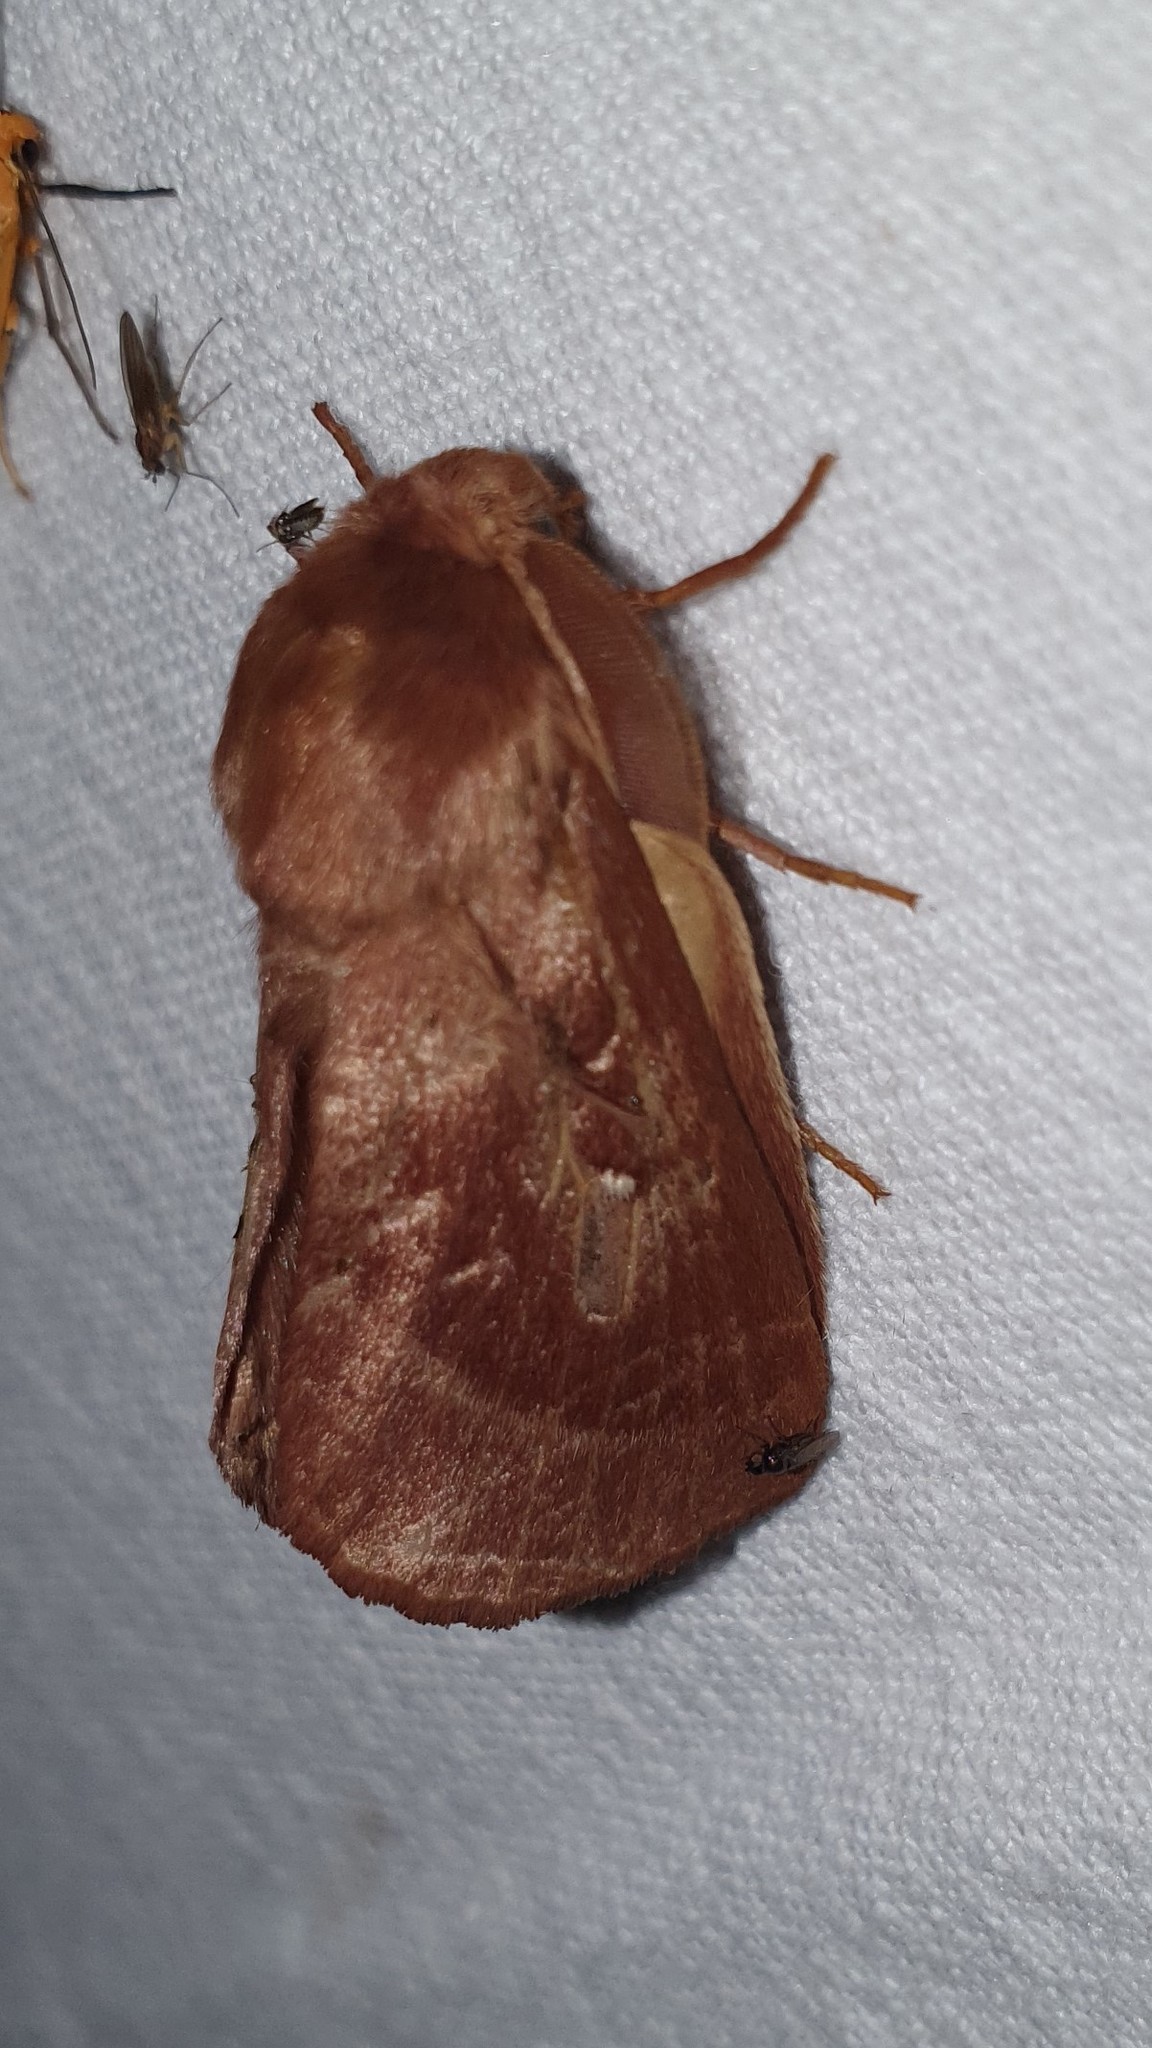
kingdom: Animalia
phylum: Arthropoda
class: Insecta
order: Lepidoptera
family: Lasiocampidae
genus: Lasiocampa
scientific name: Lasiocampa trifolii
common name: Grass eggar
